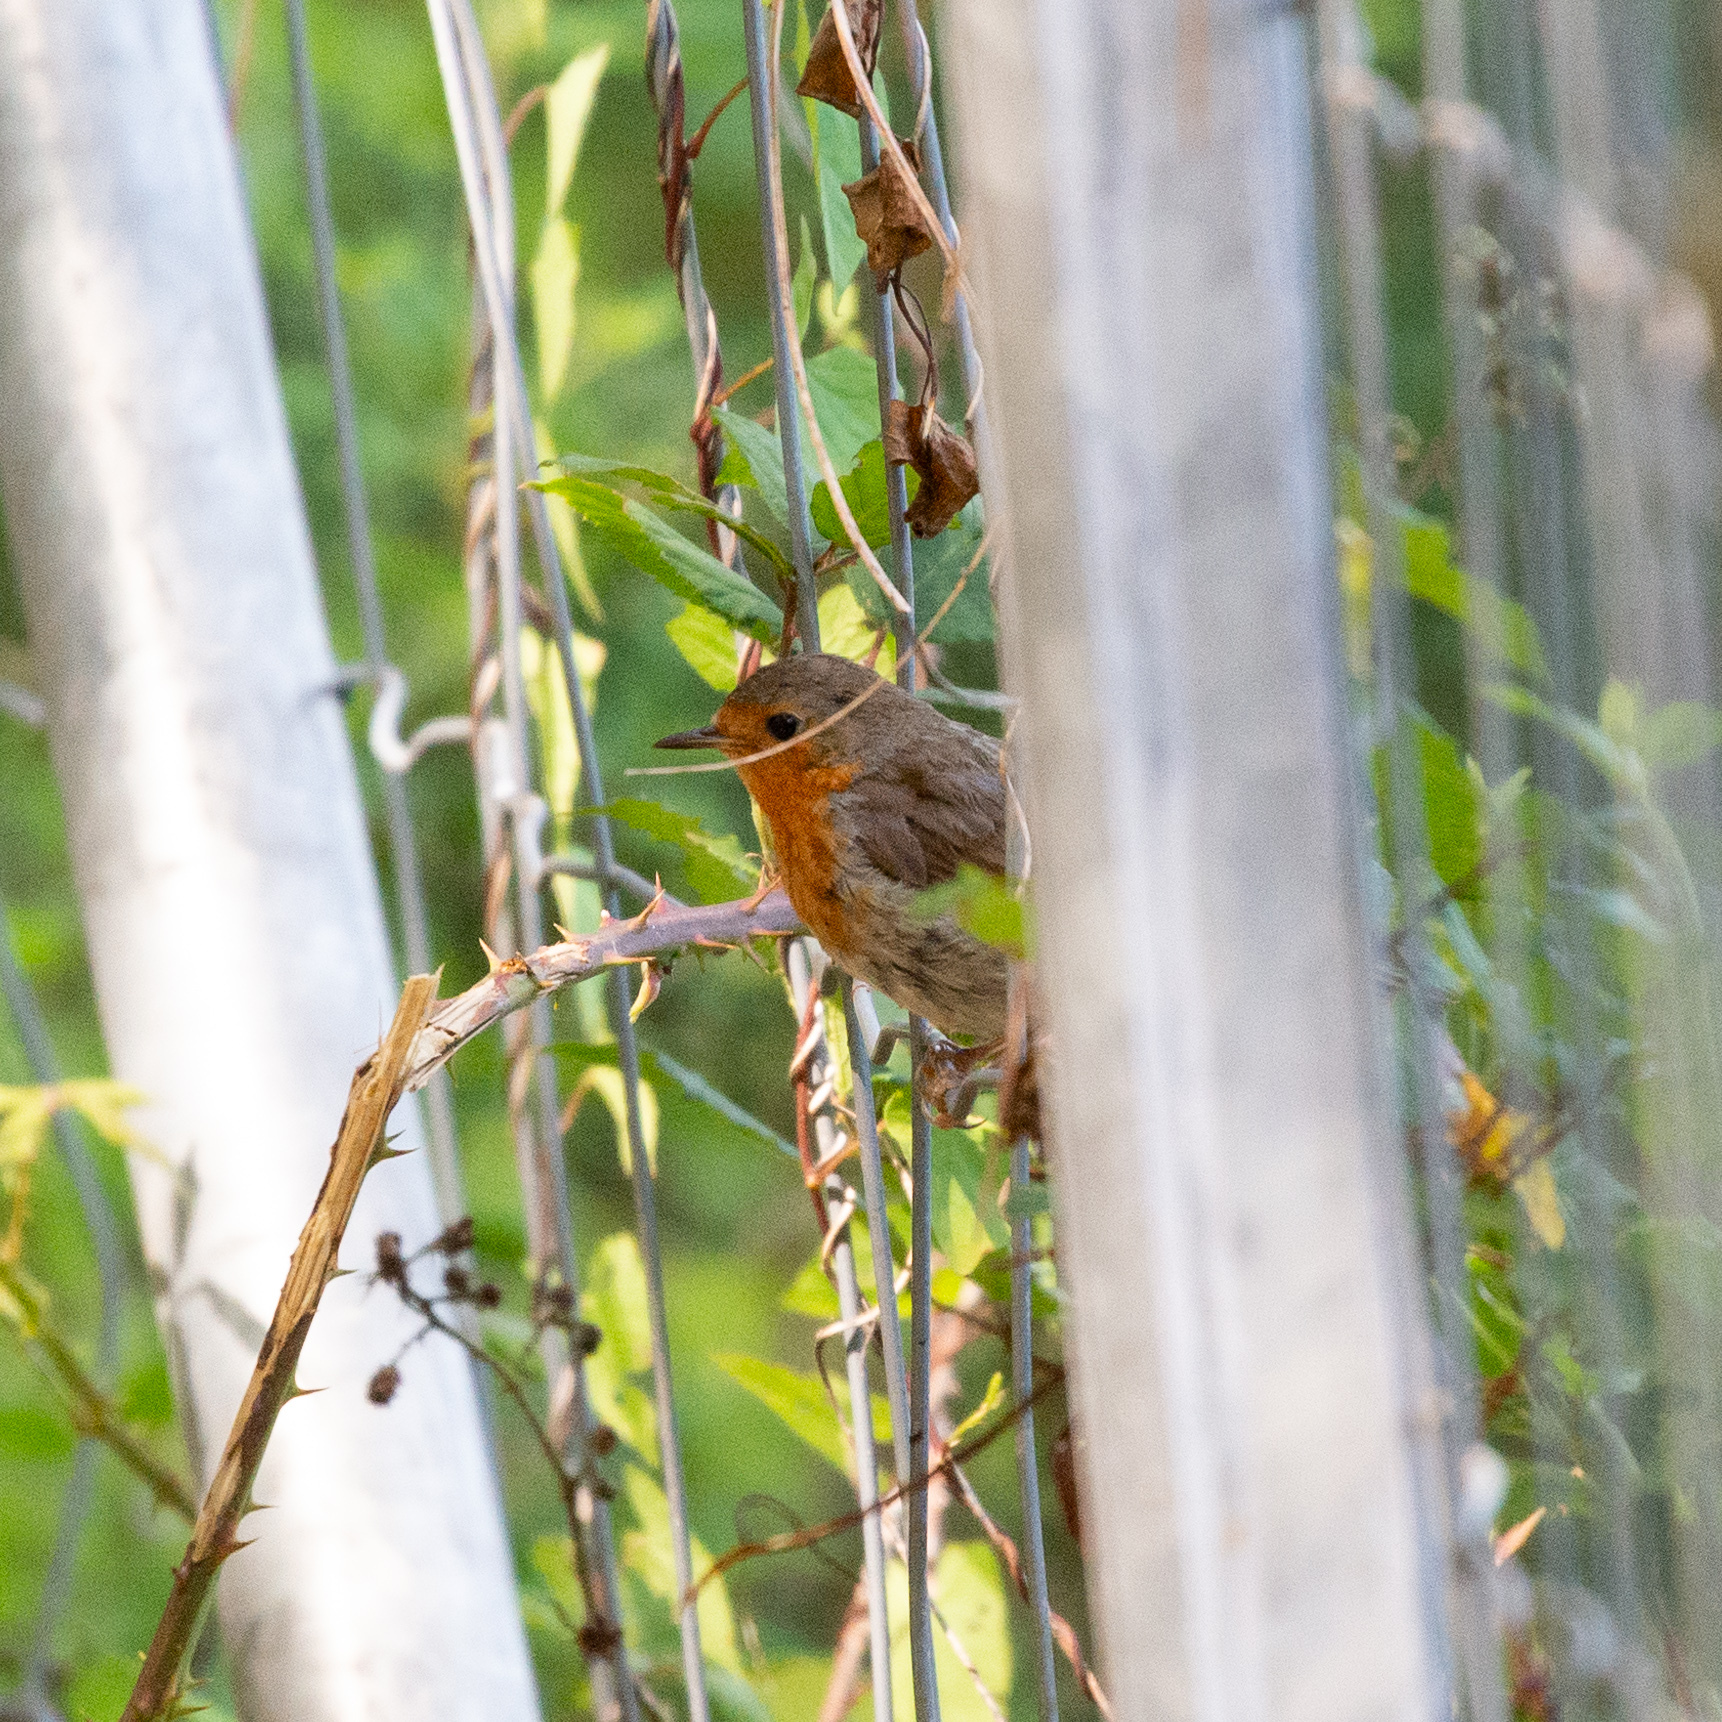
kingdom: Animalia
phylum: Chordata
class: Aves
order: Passeriformes
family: Muscicapidae
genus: Erithacus
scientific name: Erithacus rubecula
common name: European robin
